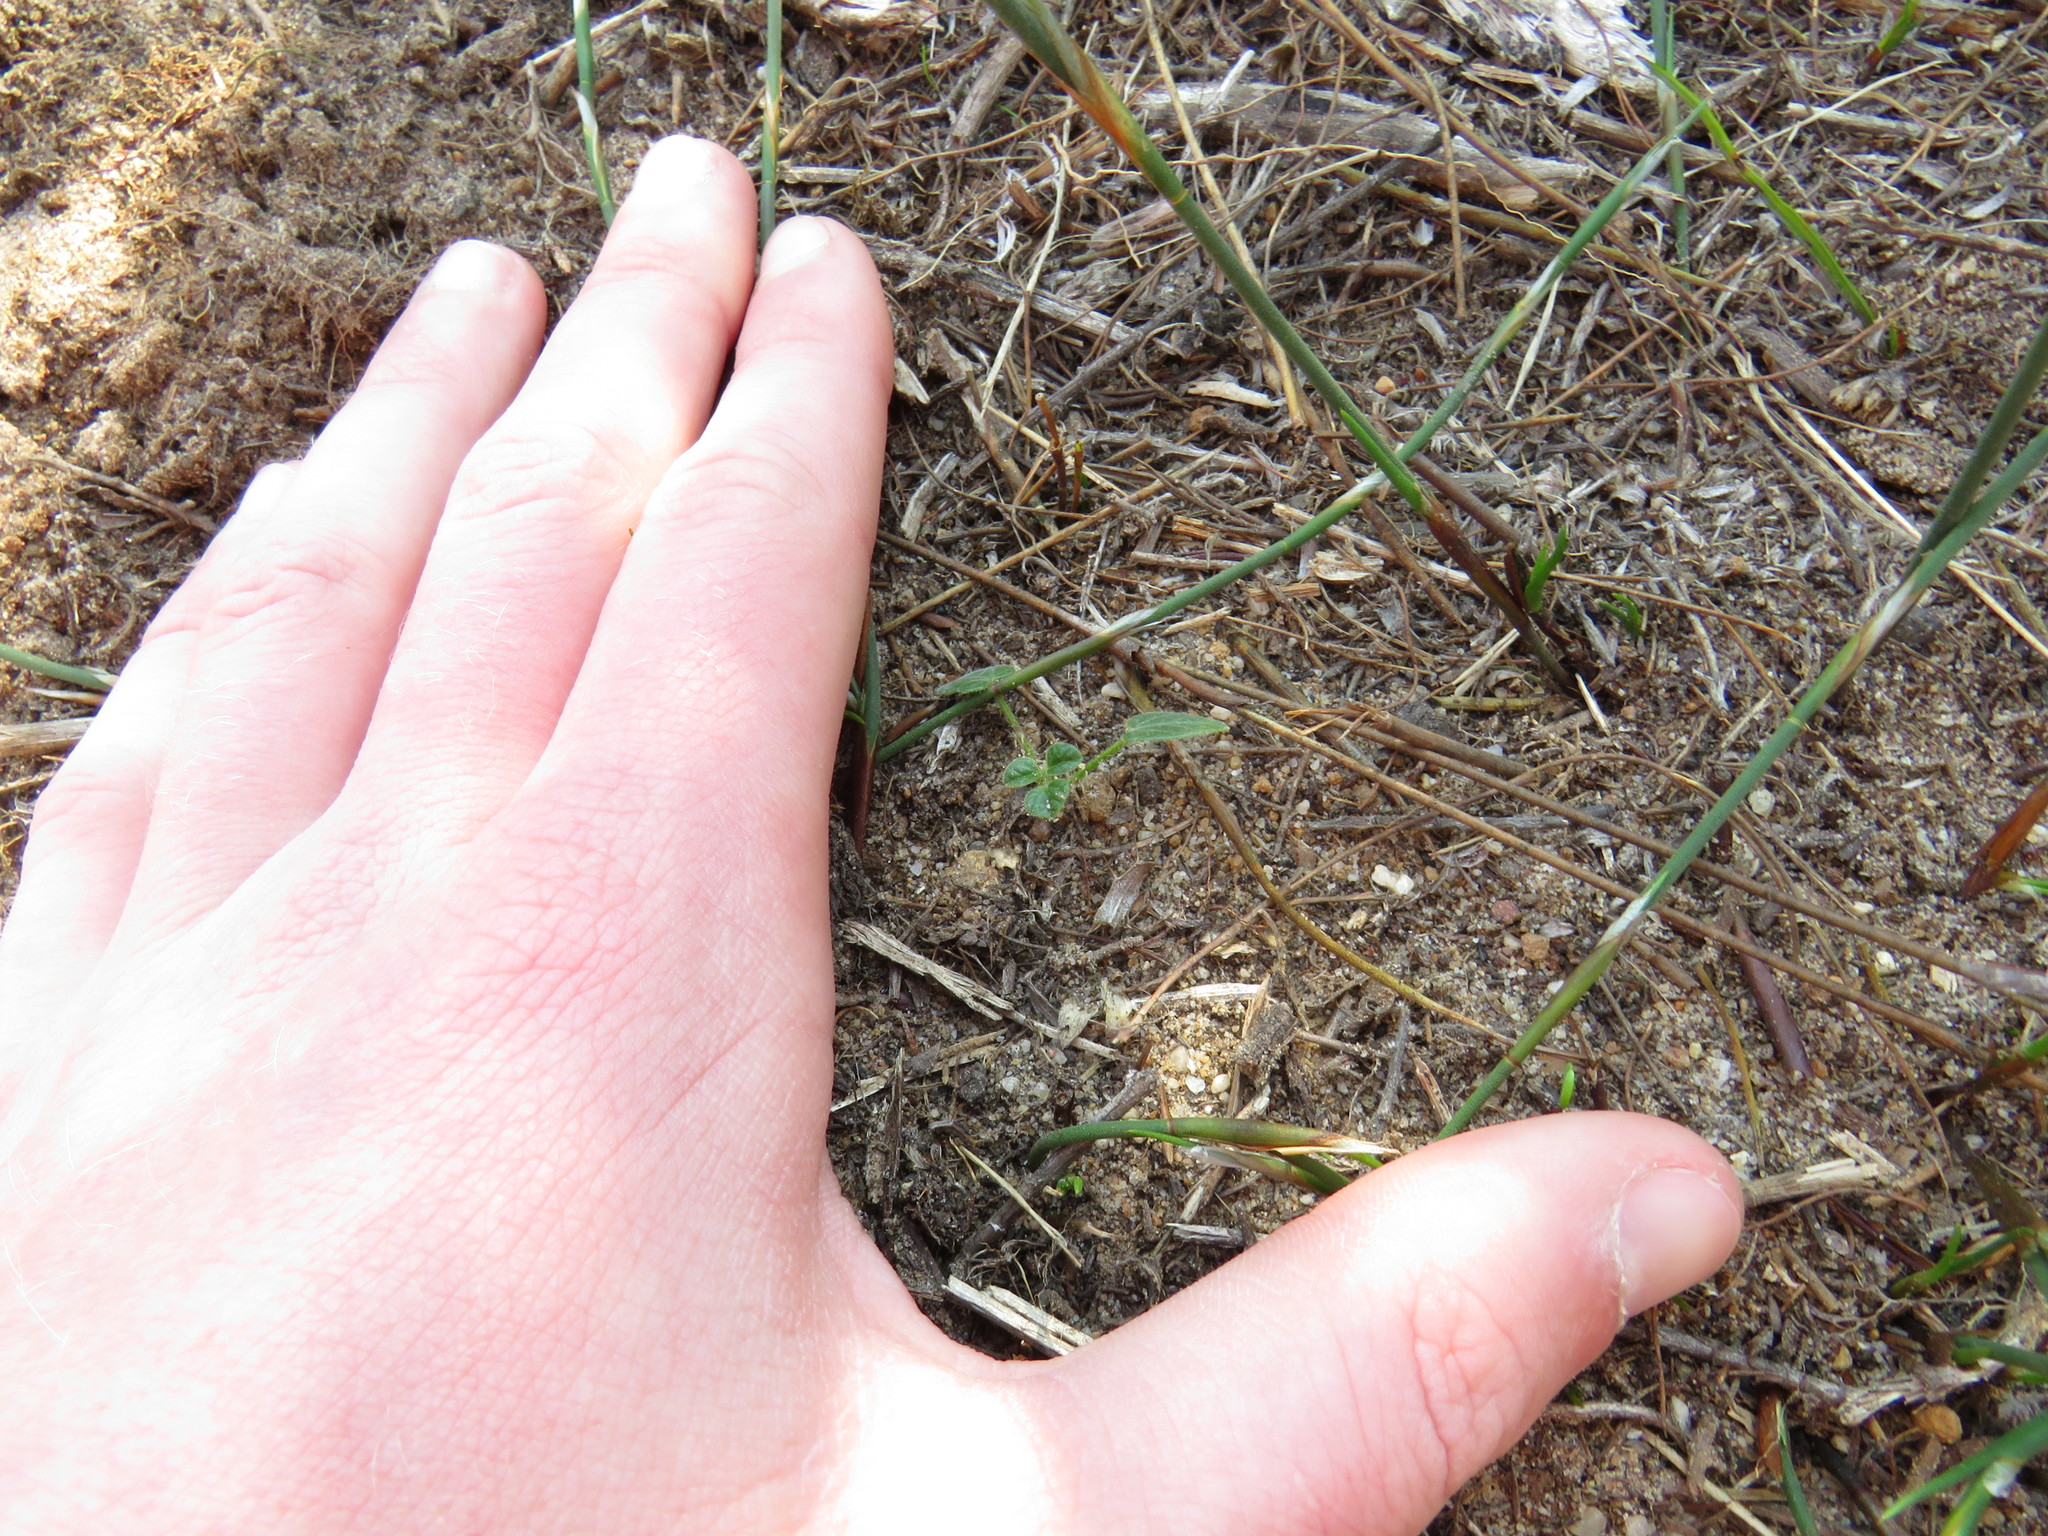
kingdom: Plantae
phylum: Tracheophyta
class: Magnoliopsida
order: Fabales
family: Fabaceae
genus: Bolusafra
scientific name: Bolusafra bituminosa
